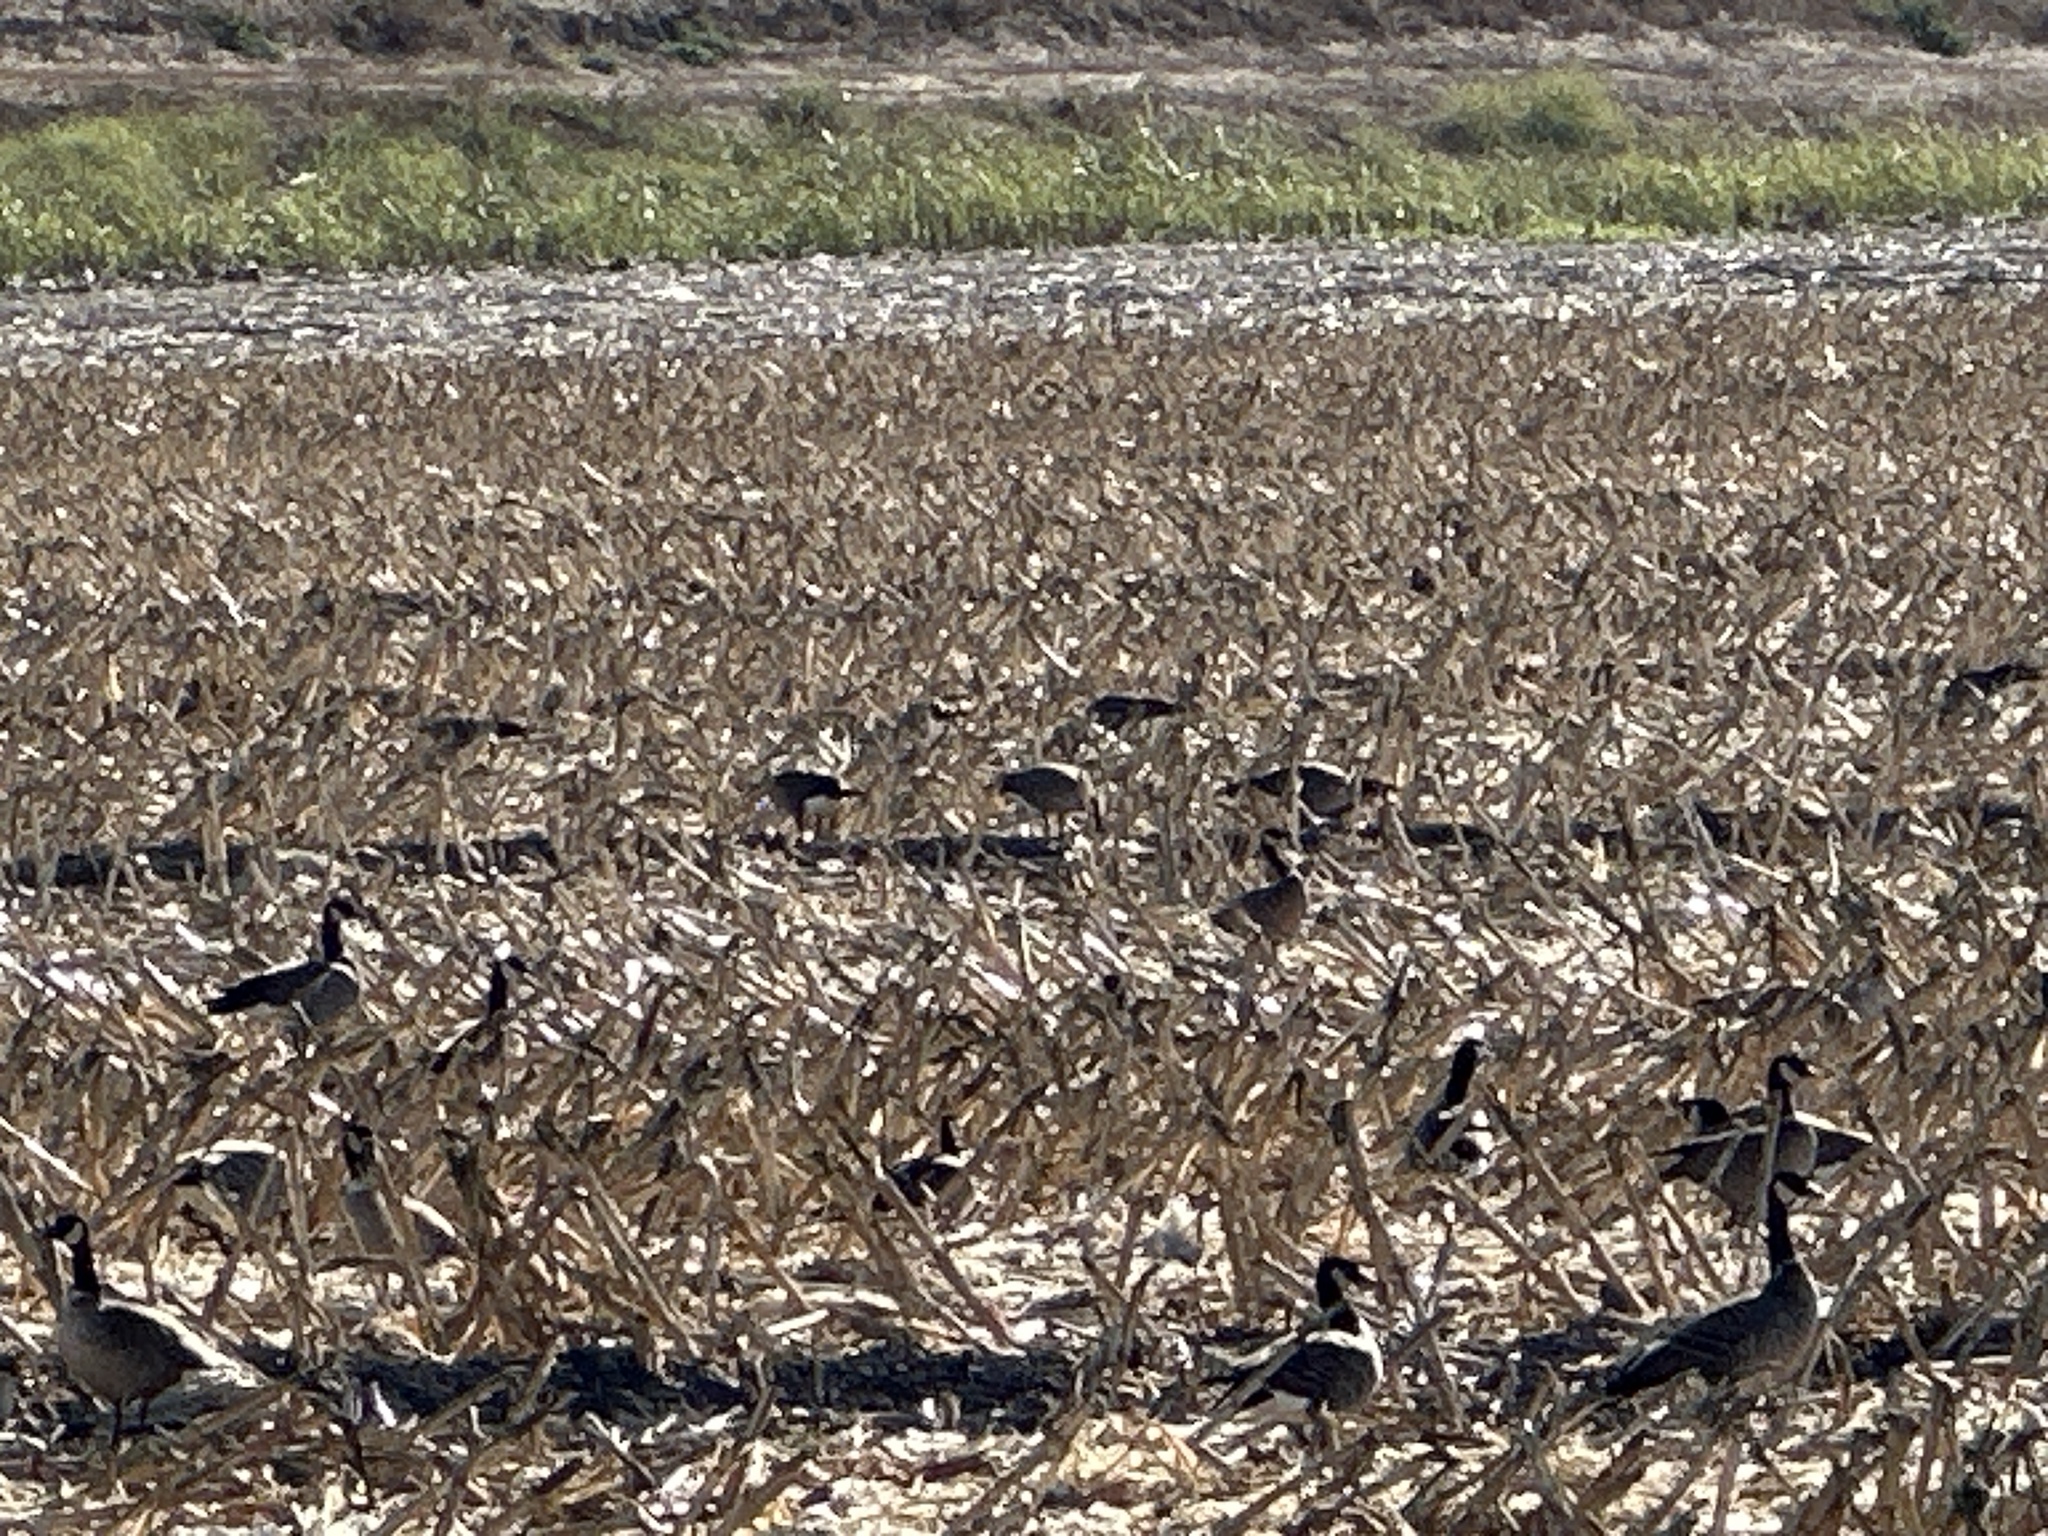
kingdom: Animalia
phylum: Chordata
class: Aves
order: Anseriformes
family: Anatidae
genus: Branta
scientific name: Branta canadensis
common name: Canada goose
